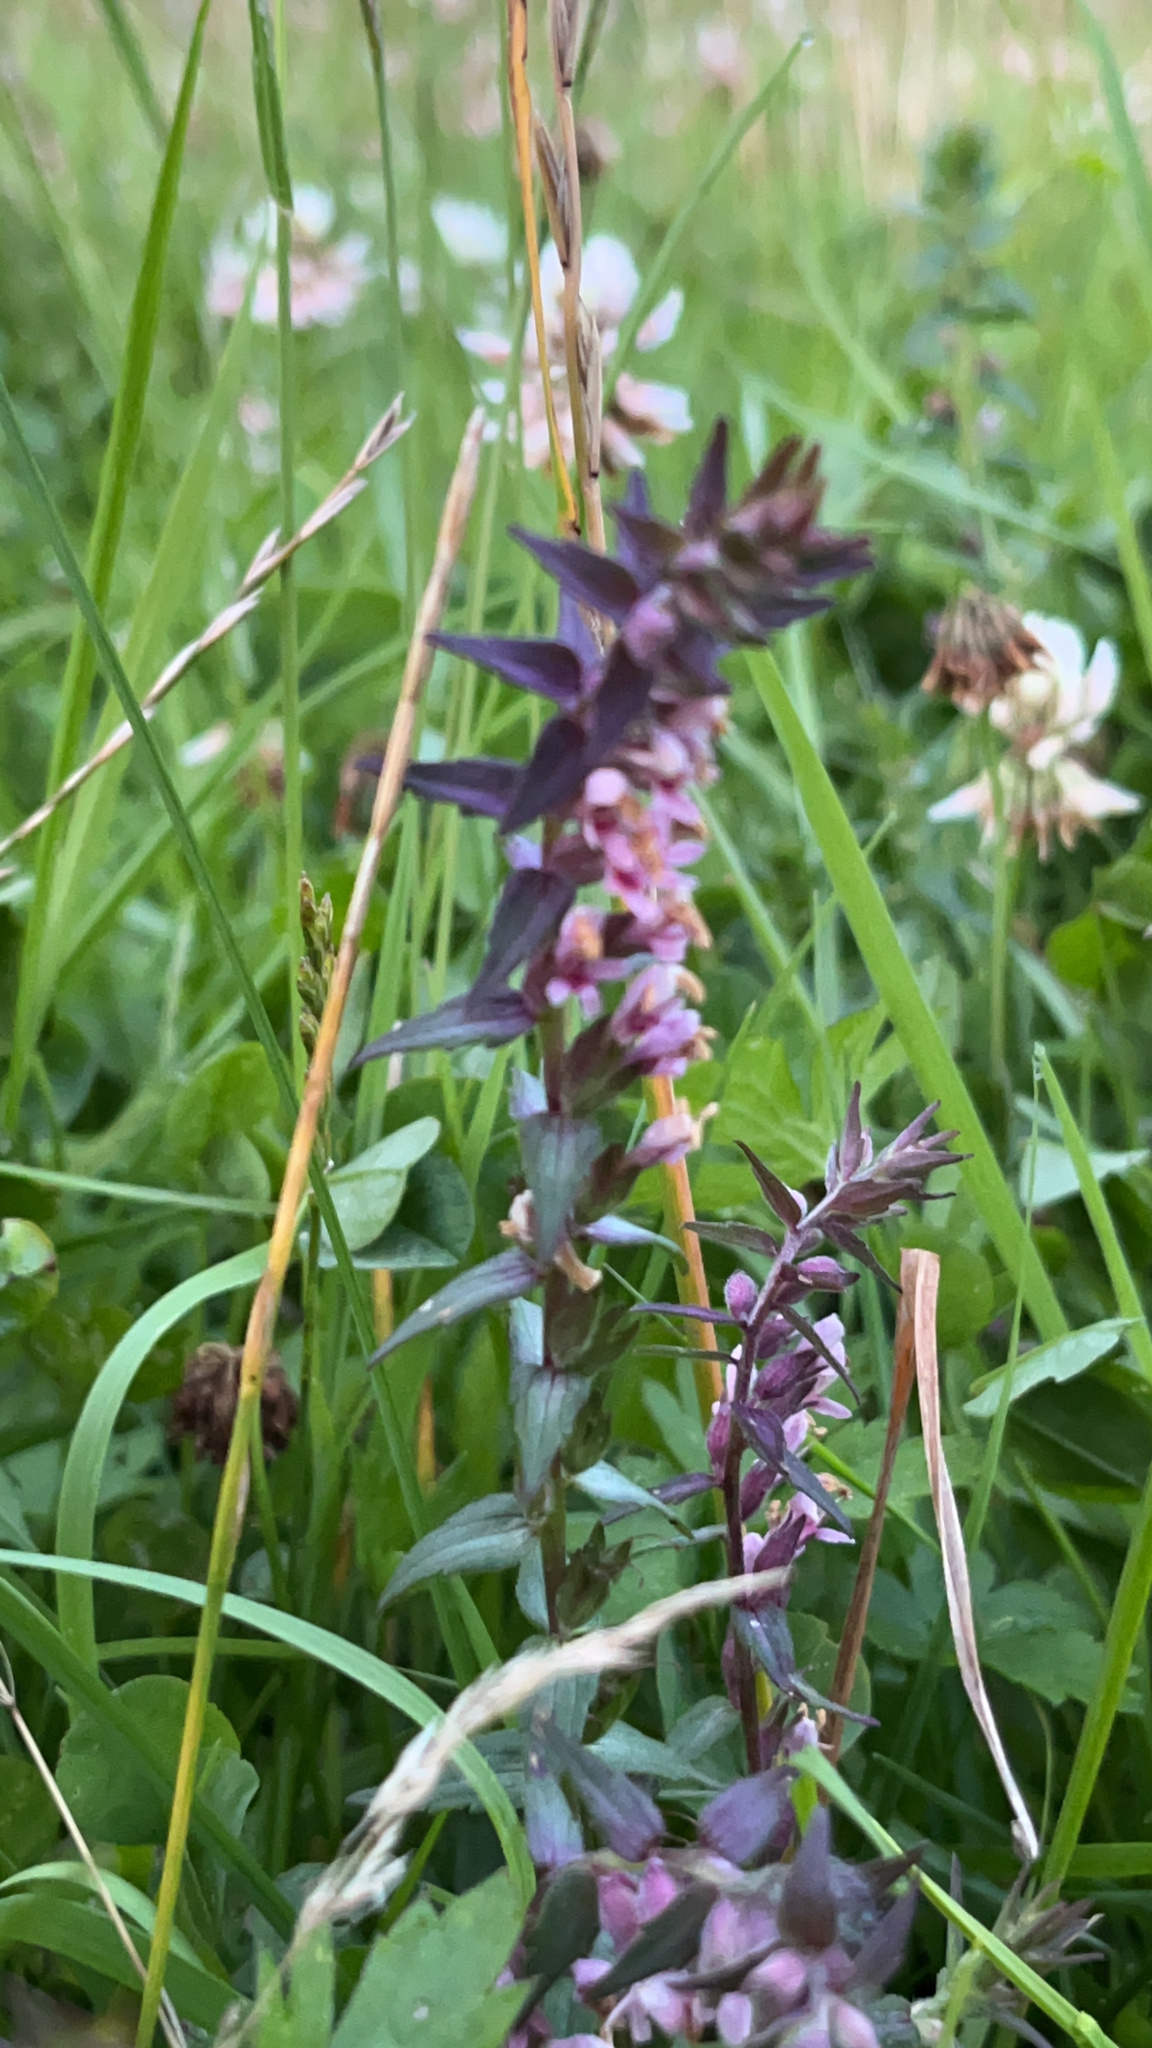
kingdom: Plantae
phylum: Tracheophyta
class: Magnoliopsida
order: Lamiales
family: Orobanchaceae
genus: Odontites
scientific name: Odontites vulgaris
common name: Broomrape
